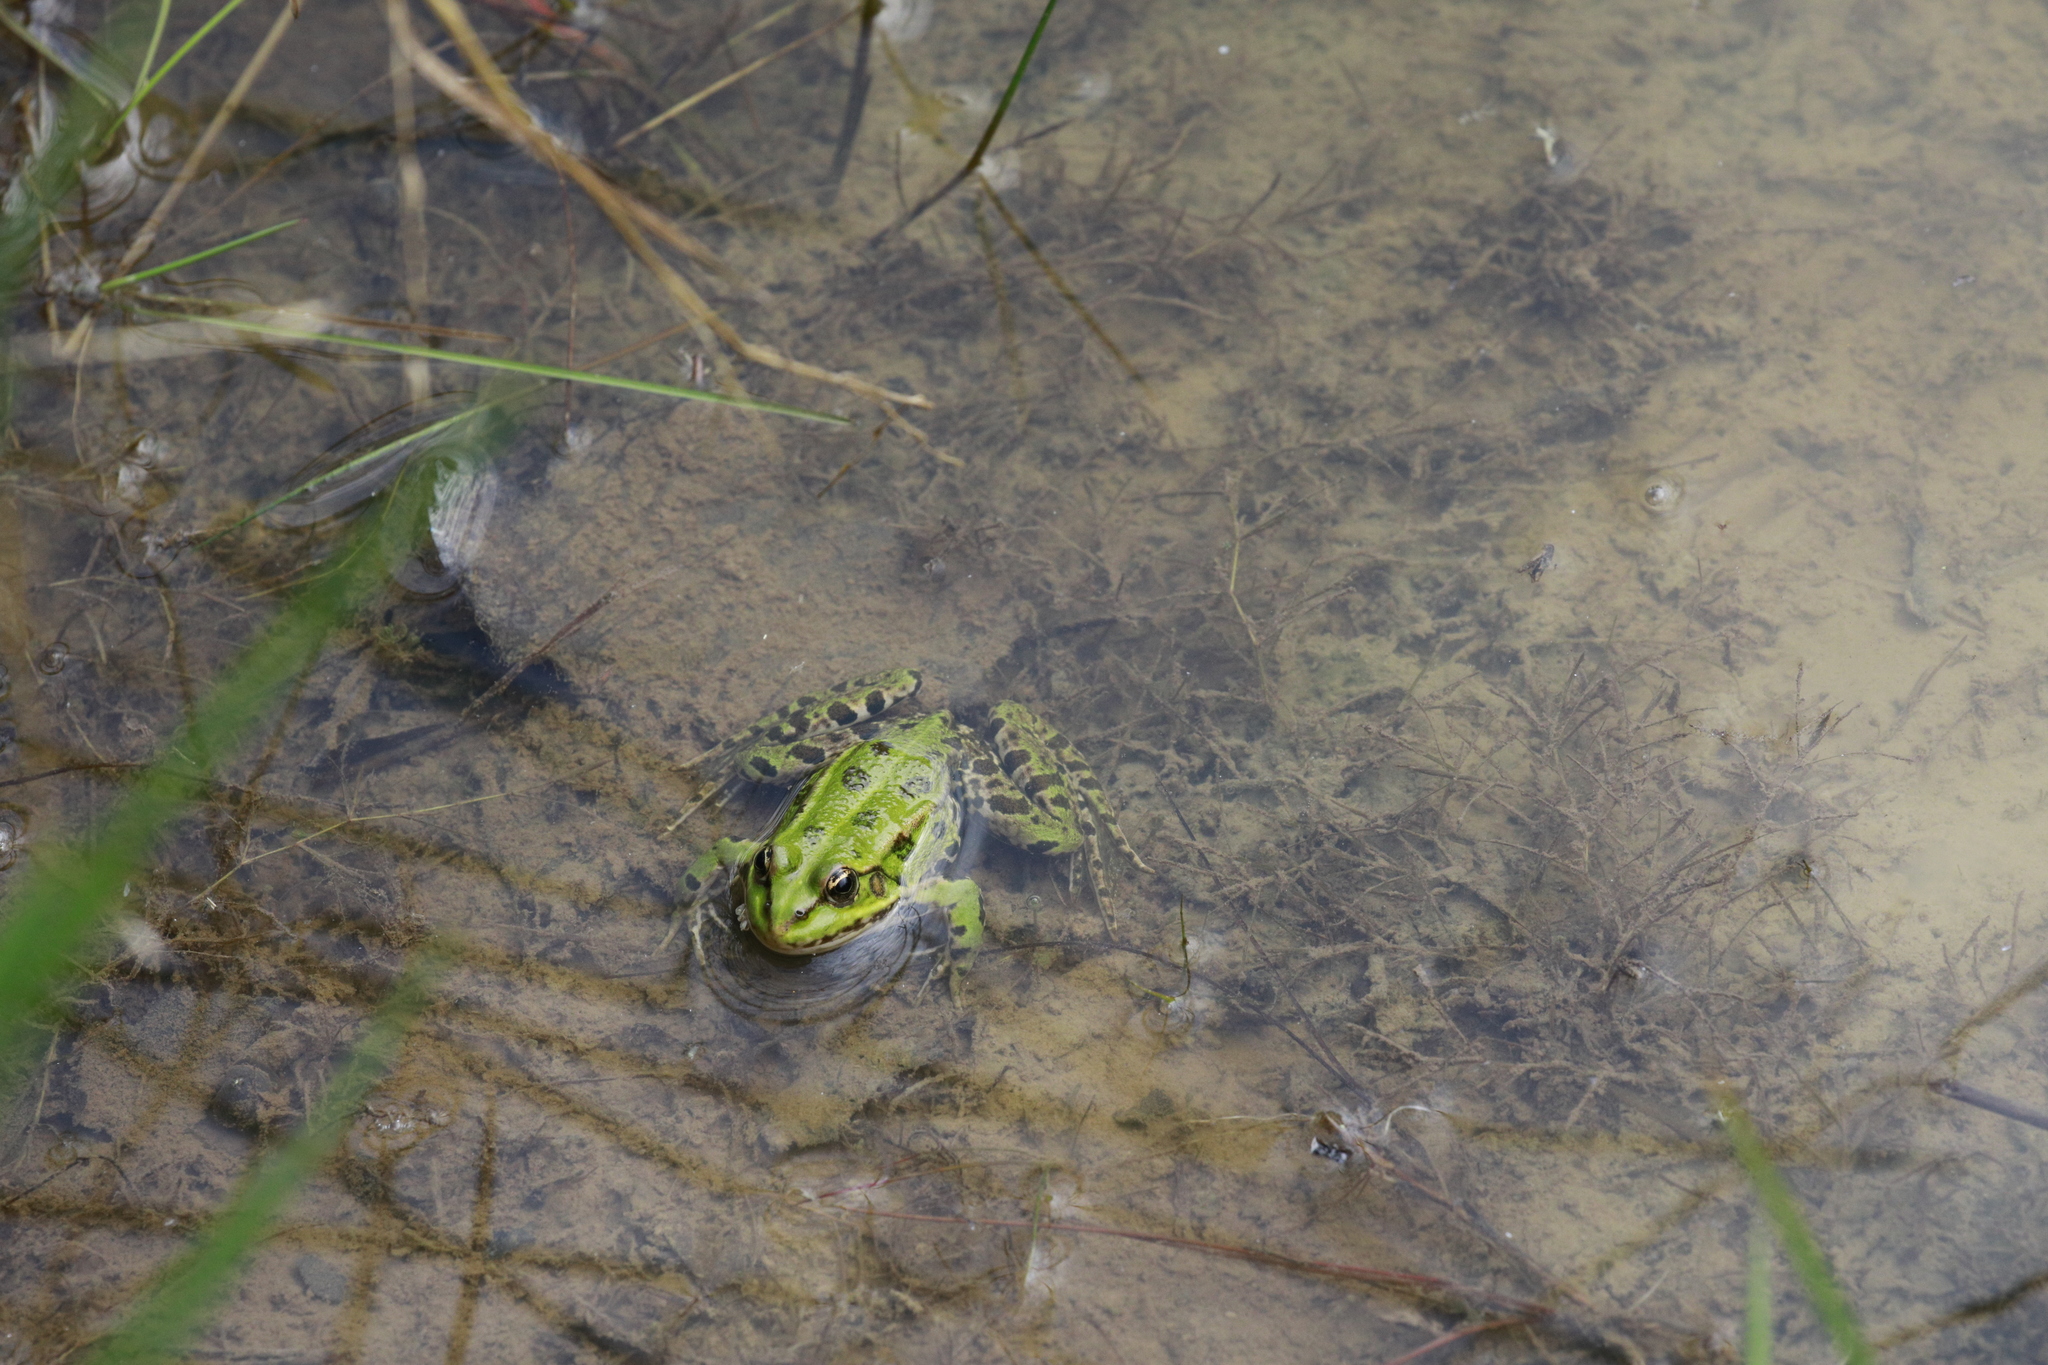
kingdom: Animalia
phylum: Chordata
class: Amphibia
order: Anura
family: Ranidae
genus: Pelophylax
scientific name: Pelophylax lessonae
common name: Pool frog
